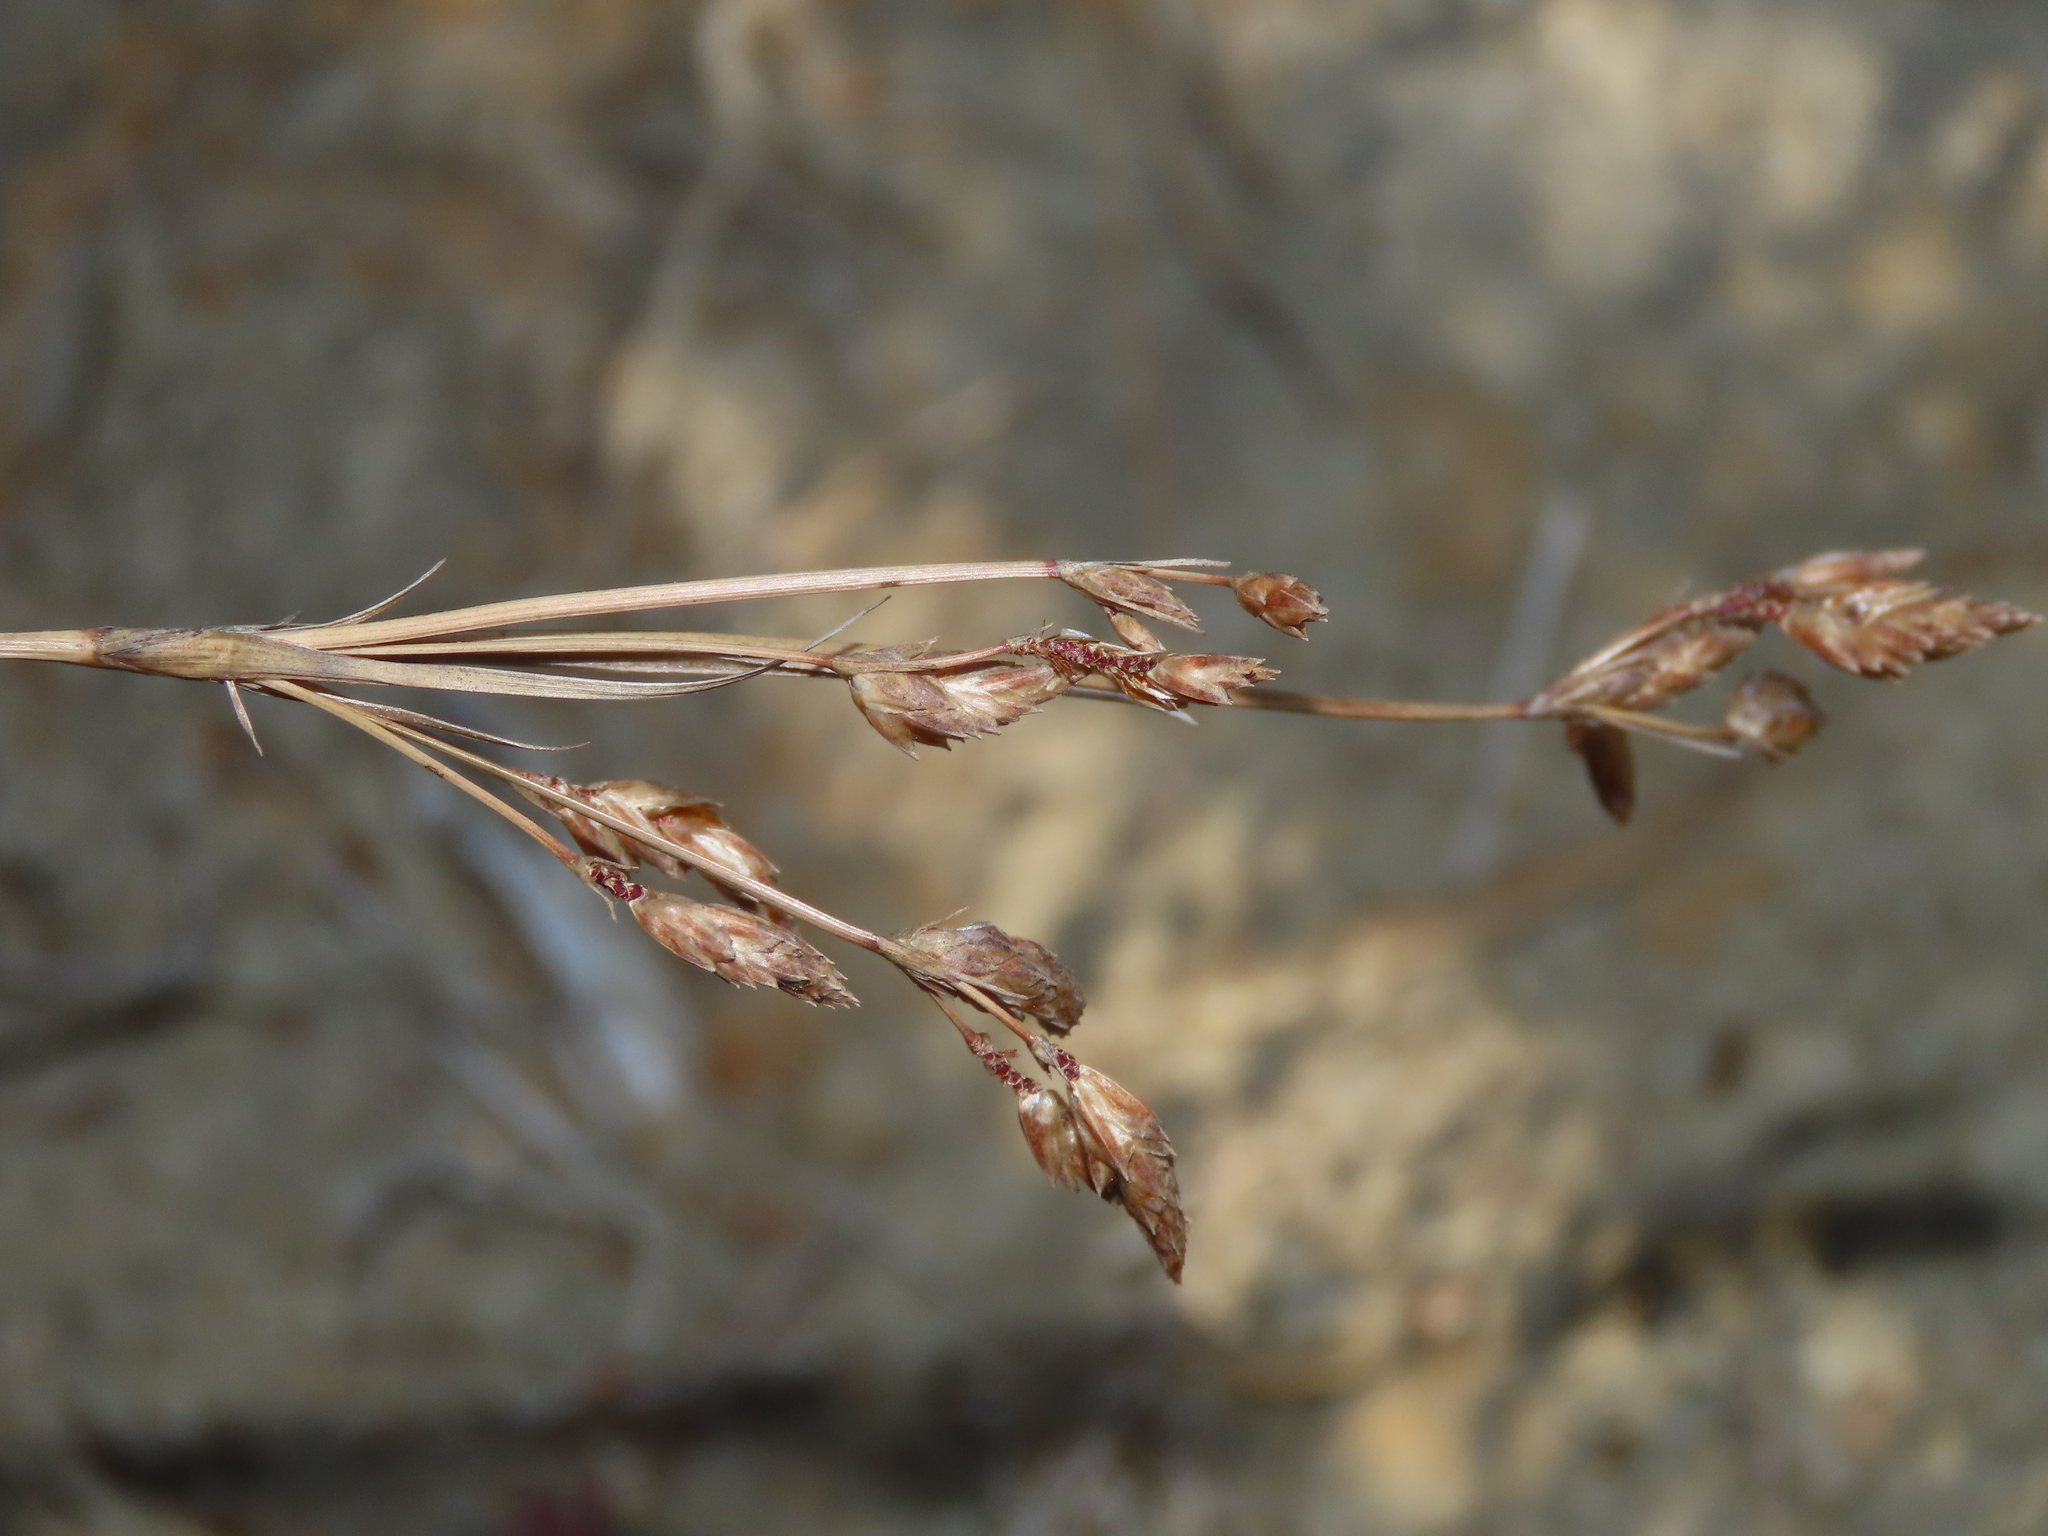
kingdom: Plantae
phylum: Tracheophyta
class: Liliopsida
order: Poales
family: Cyperaceae
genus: Fimbristylis
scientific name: Fimbristylis sieboldii
